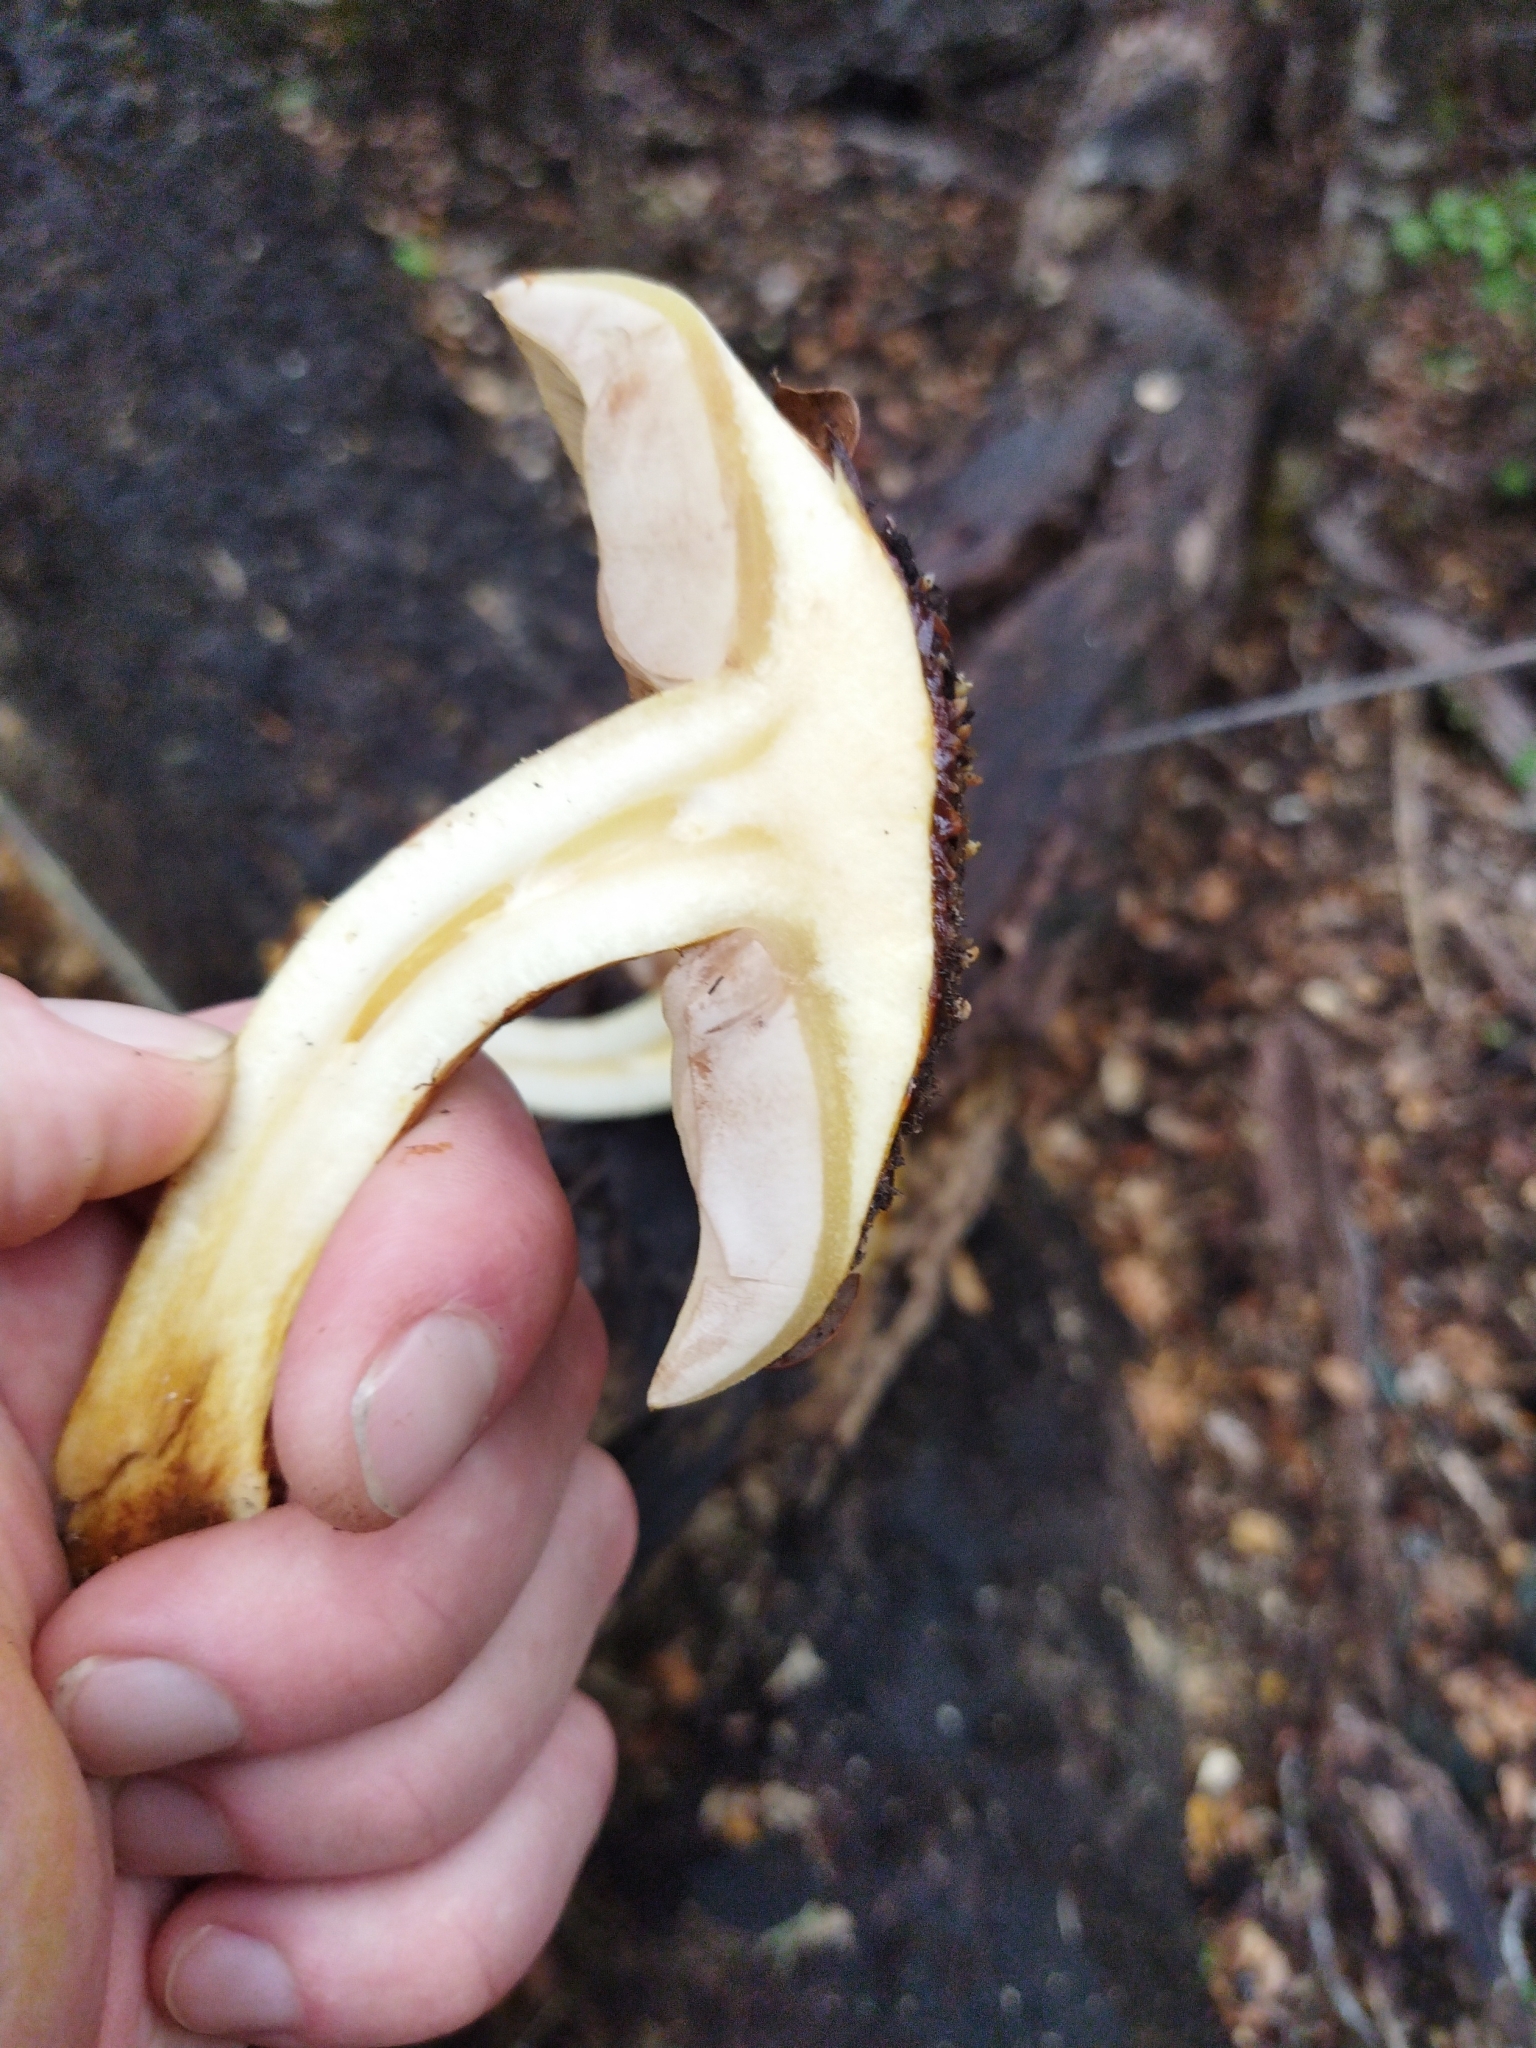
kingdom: Fungi
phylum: Basidiomycota
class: Agaricomycetes
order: Agaricales
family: Strophariaceae
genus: Pholiota
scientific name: Pholiota glutinosa
